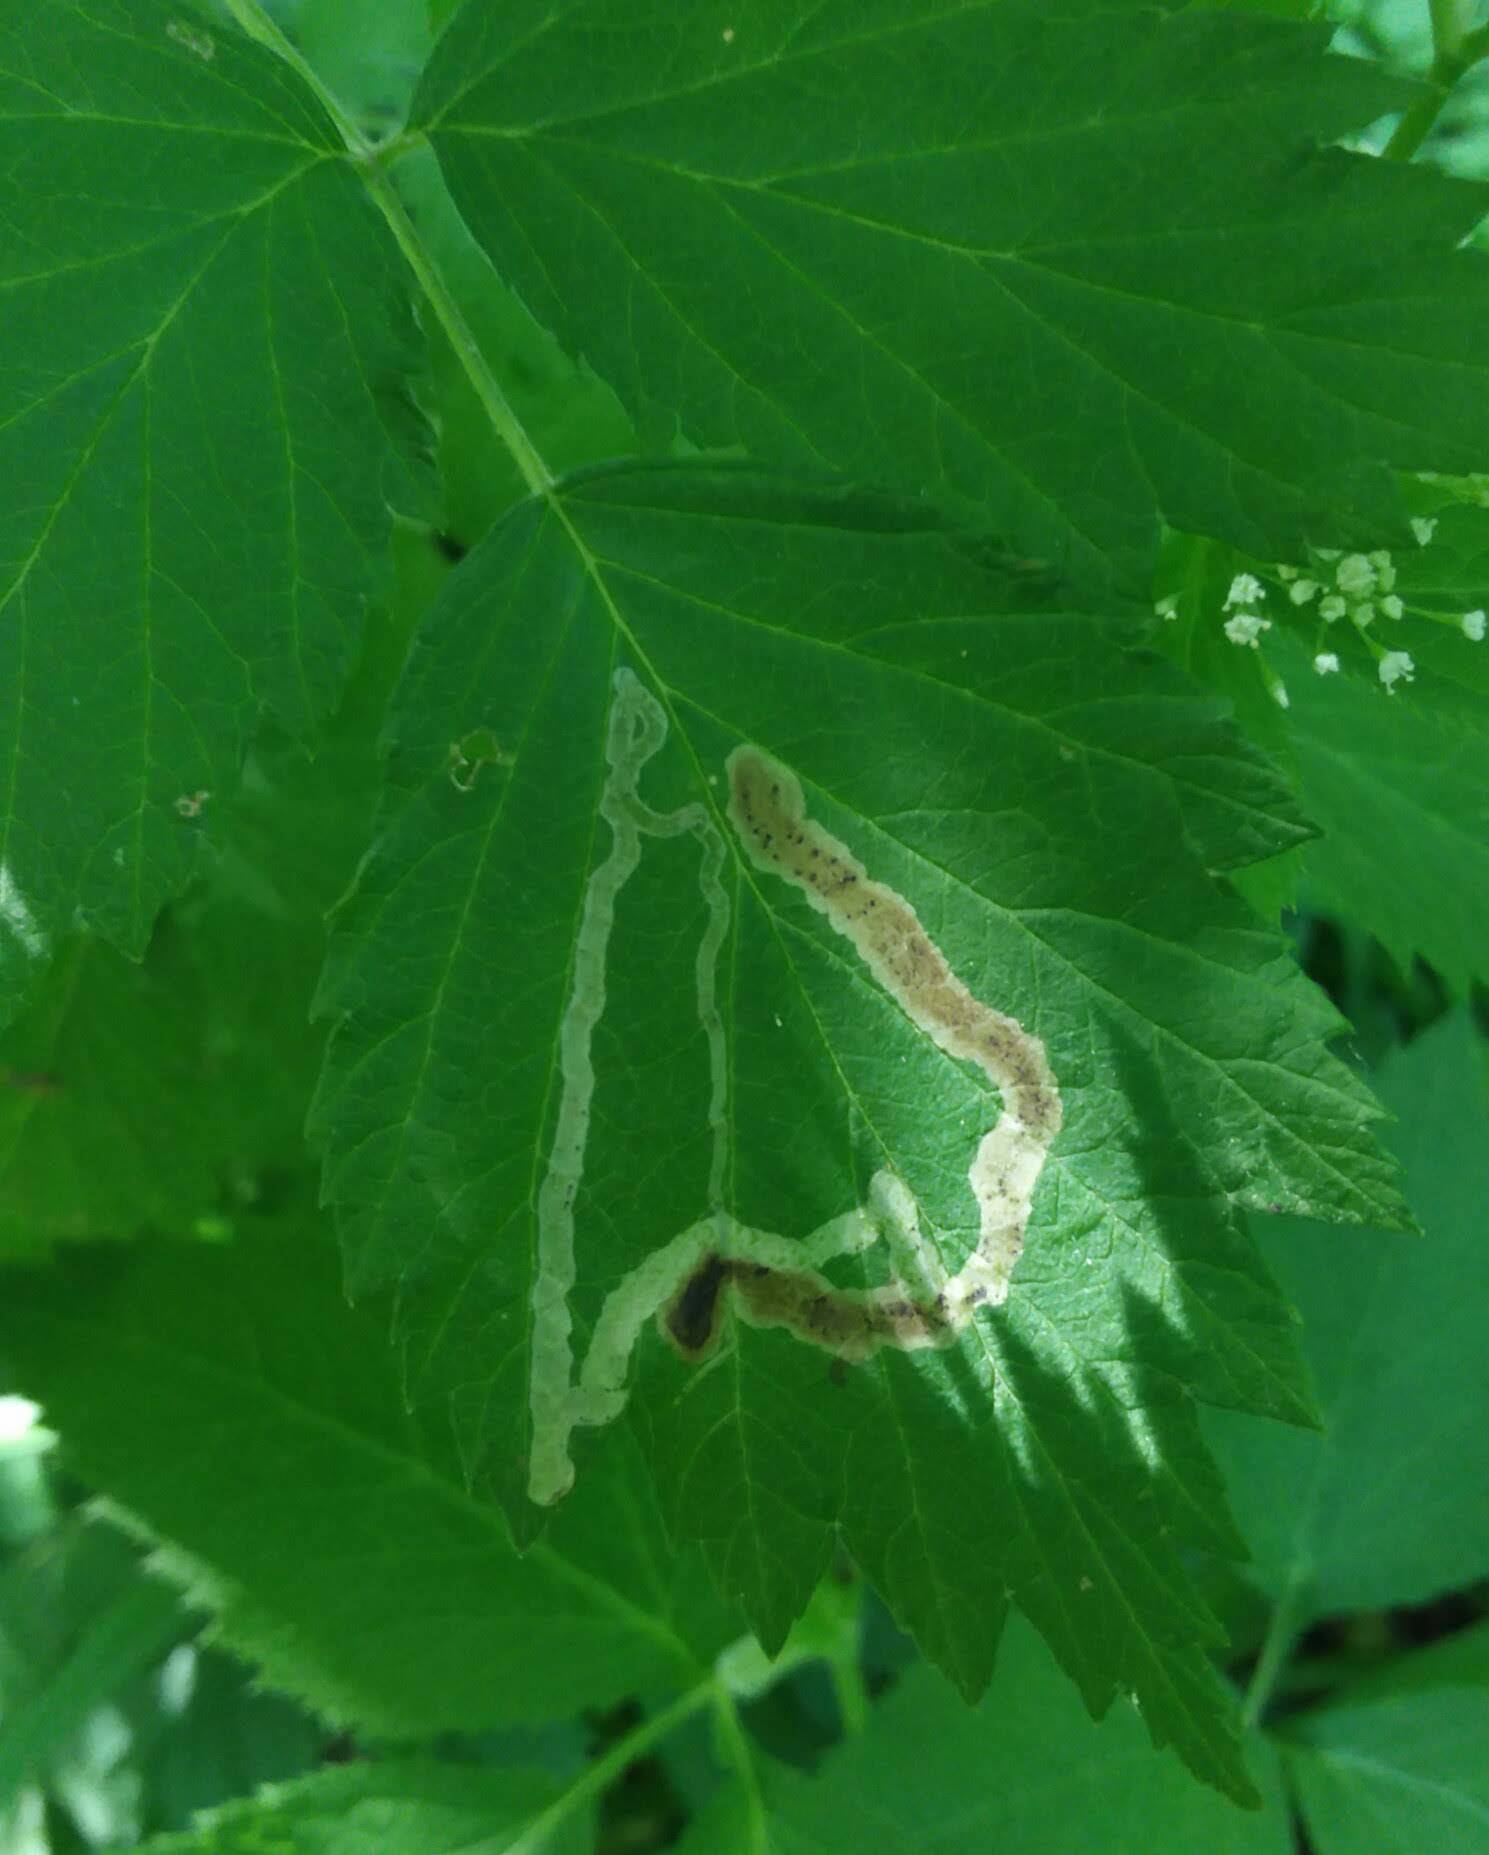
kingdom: Animalia
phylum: Arthropoda
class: Insecta
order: Diptera
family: Agromyzidae
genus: Agromyza
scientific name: Agromyza vockerothi
